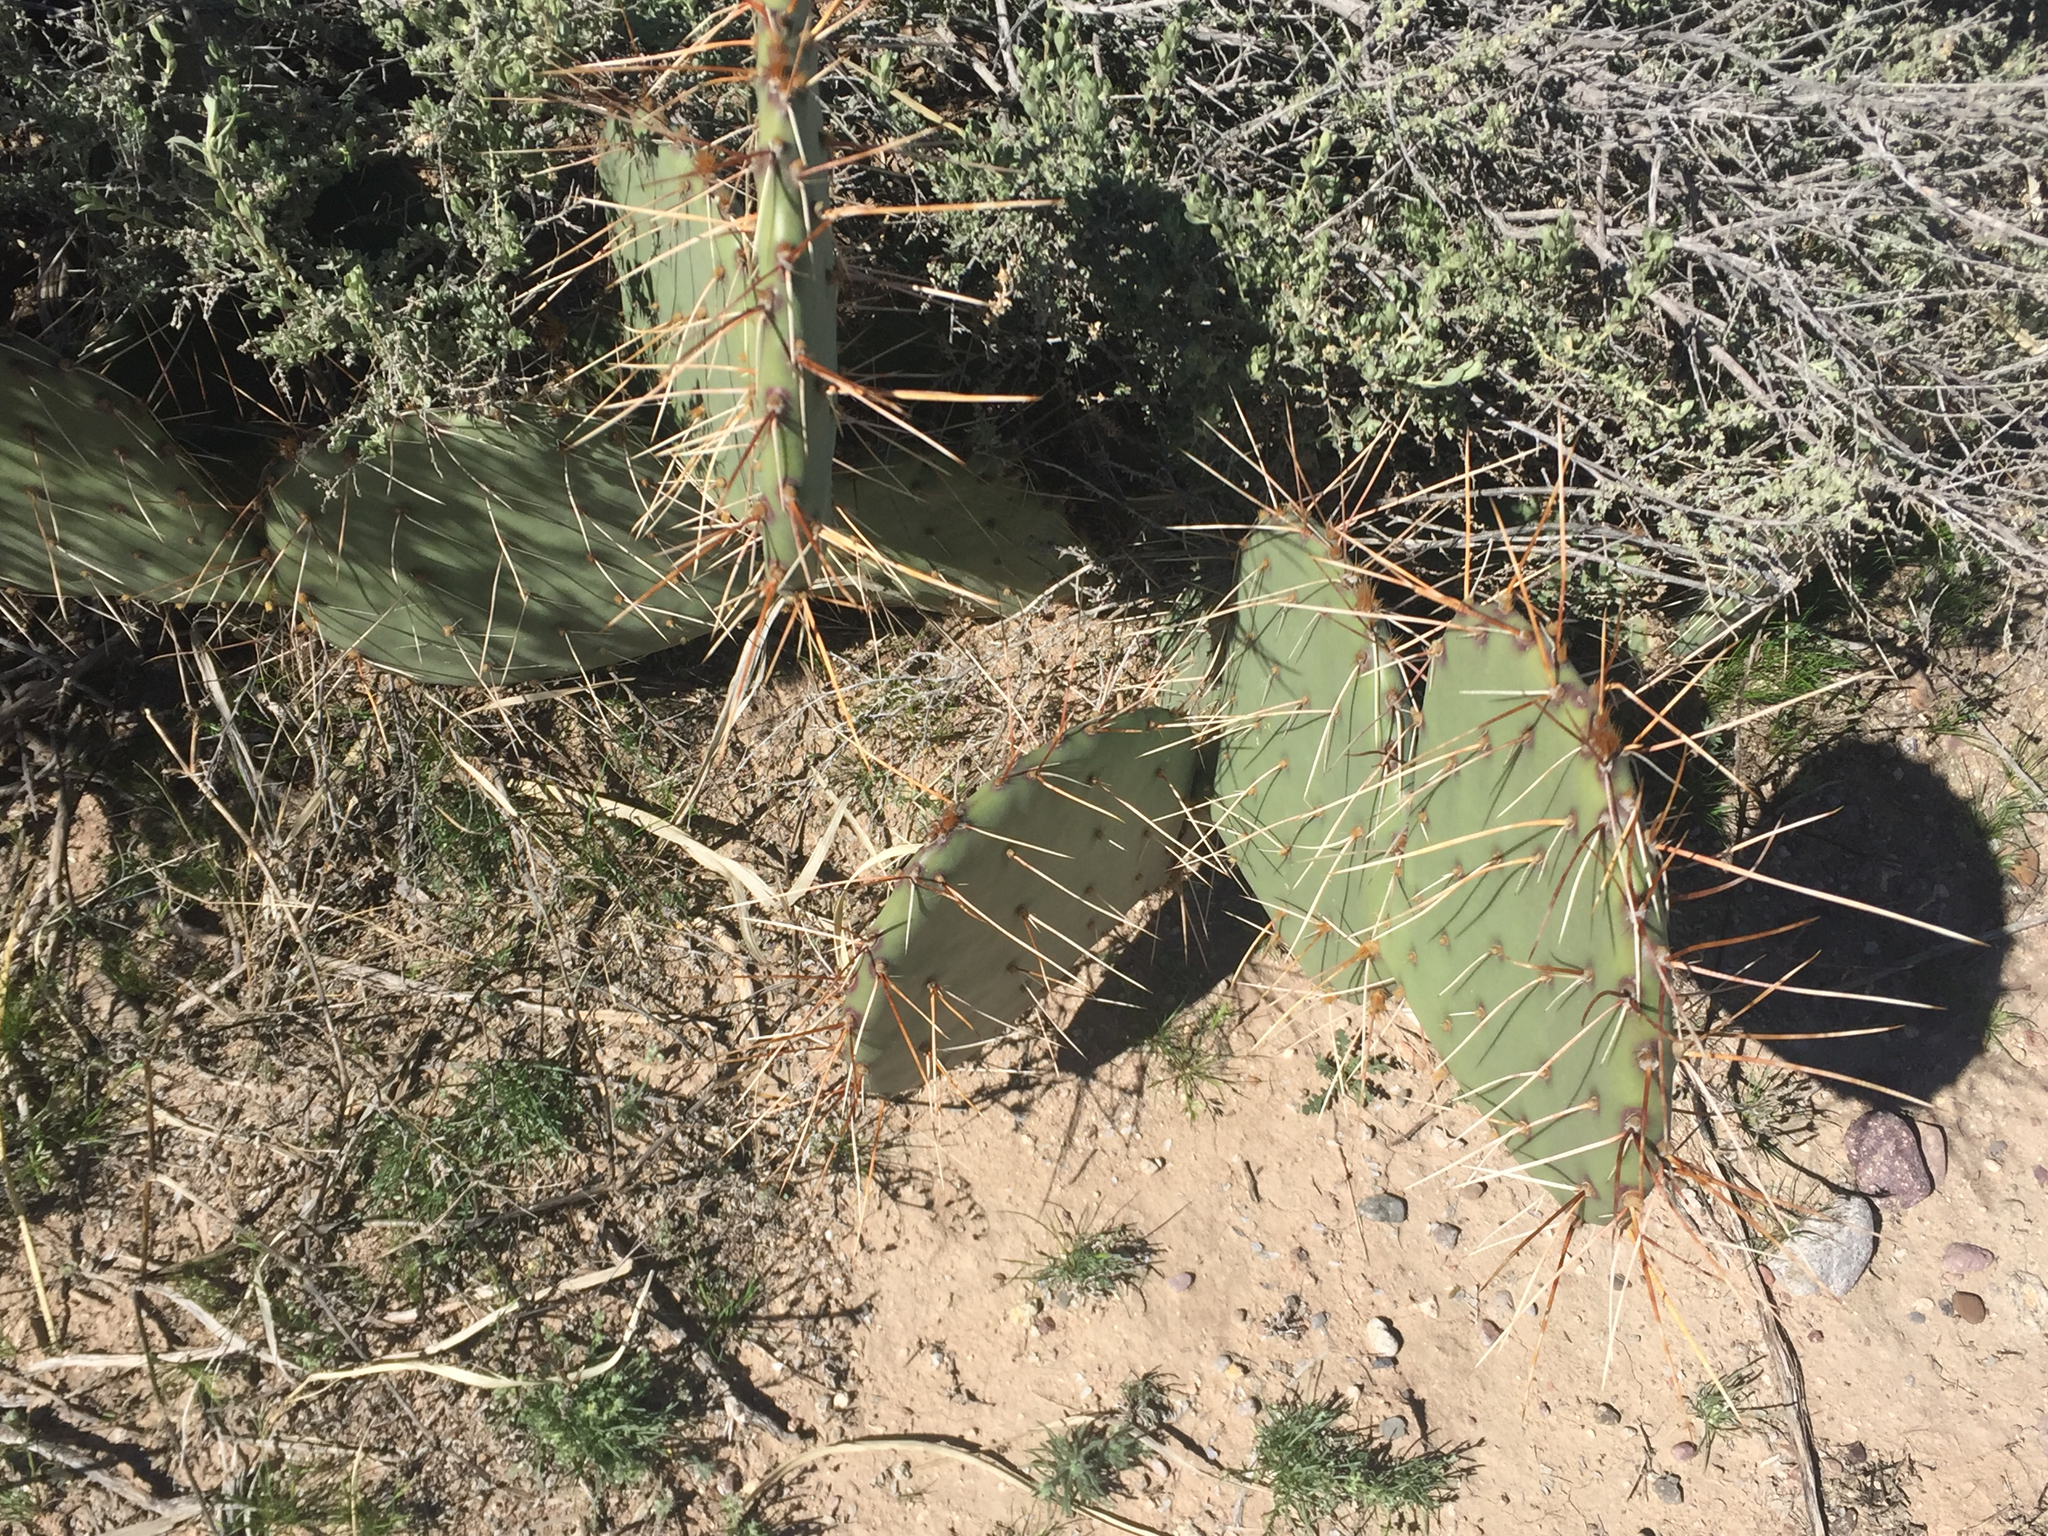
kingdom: Plantae
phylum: Tracheophyta
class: Magnoliopsida
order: Caryophyllales
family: Cactaceae
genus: Opuntia
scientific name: Opuntia phaeacantha
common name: New mexico prickly-pear
